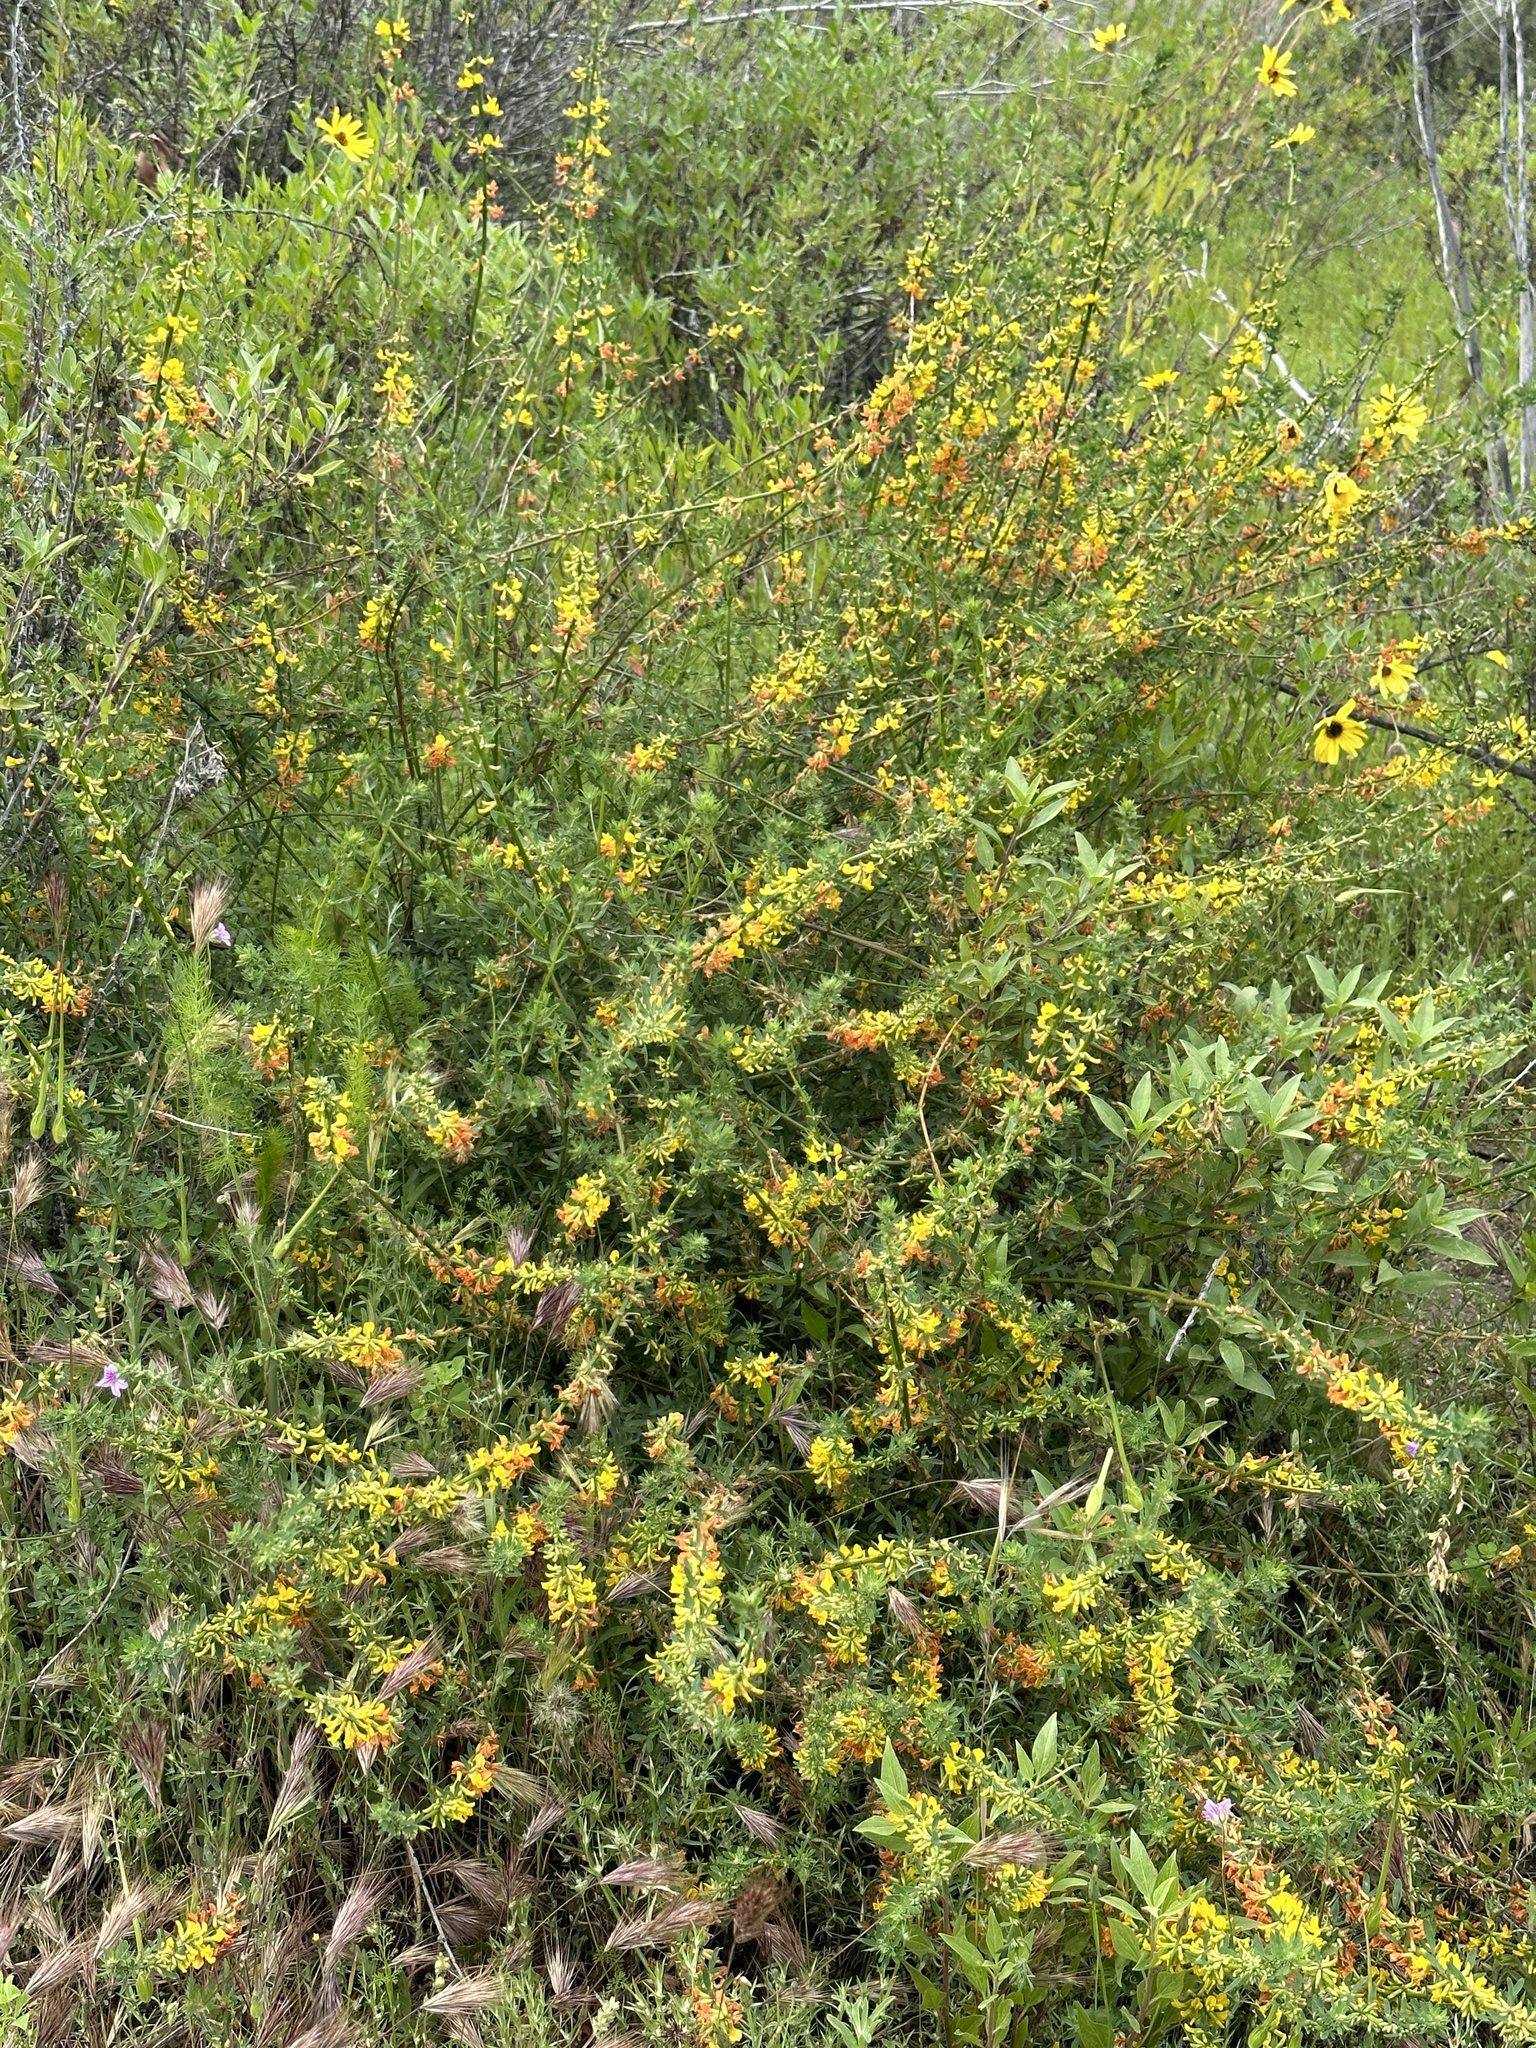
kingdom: Plantae
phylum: Tracheophyta
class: Magnoliopsida
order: Fabales
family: Fabaceae
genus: Acmispon
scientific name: Acmispon glaber
